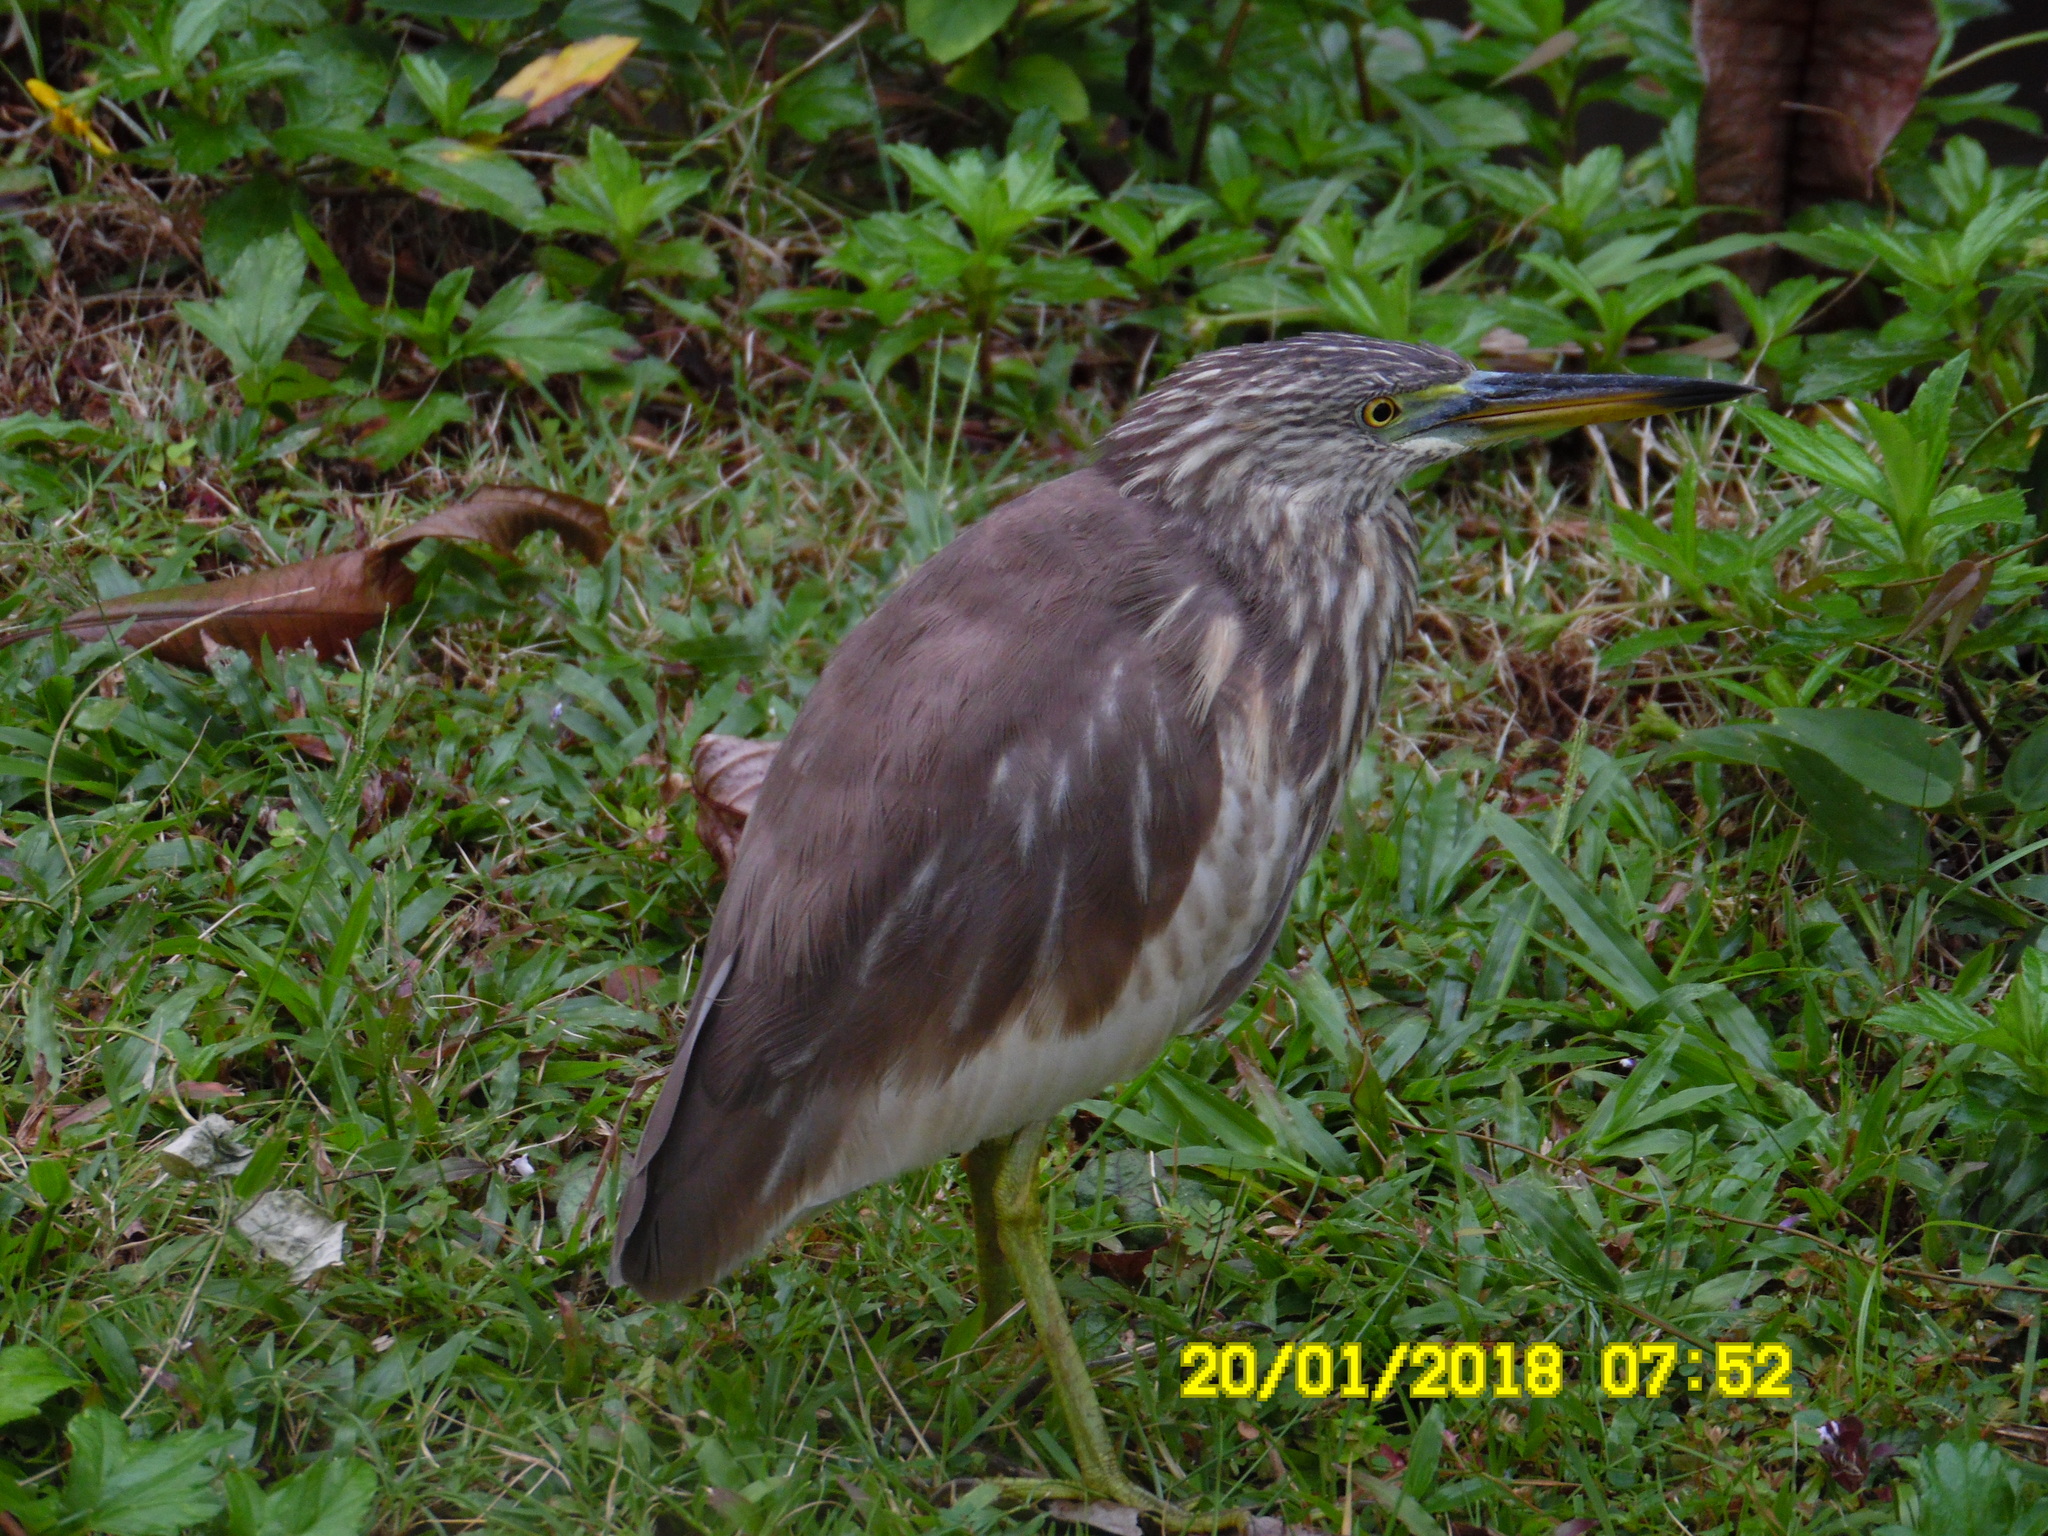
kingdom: Animalia
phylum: Chordata
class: Aves
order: Pelecaniformes
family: Ardeidae
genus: Ardeola
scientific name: Ardeola
